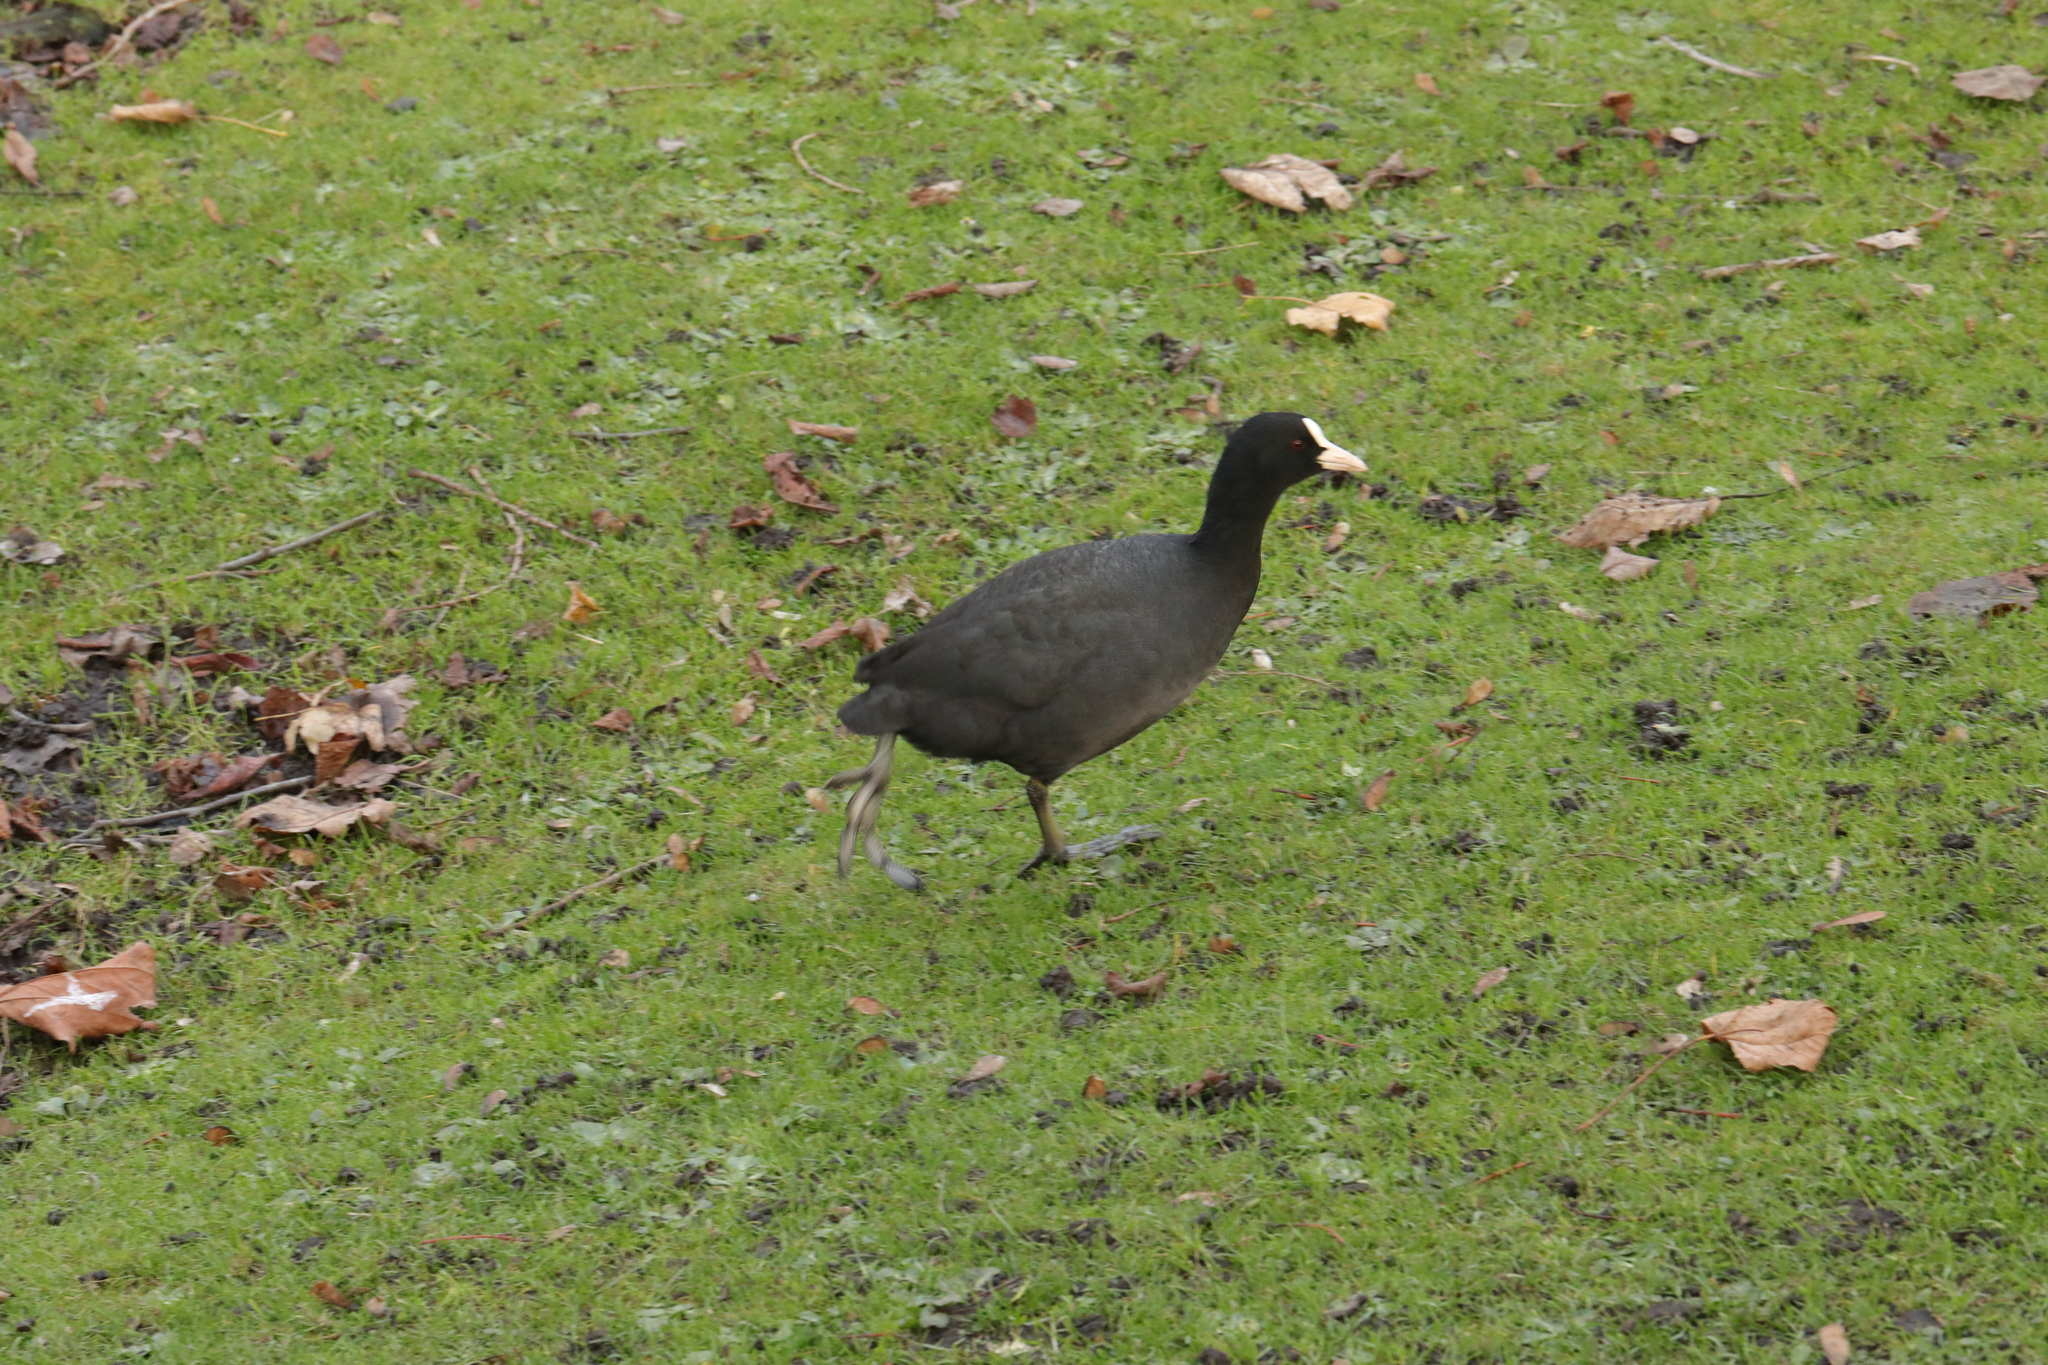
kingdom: Animalia
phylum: Chordata
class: Aves
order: Gruiformes
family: Rallidae
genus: Fulica
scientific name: Fulica atra
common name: Eurasian coot
